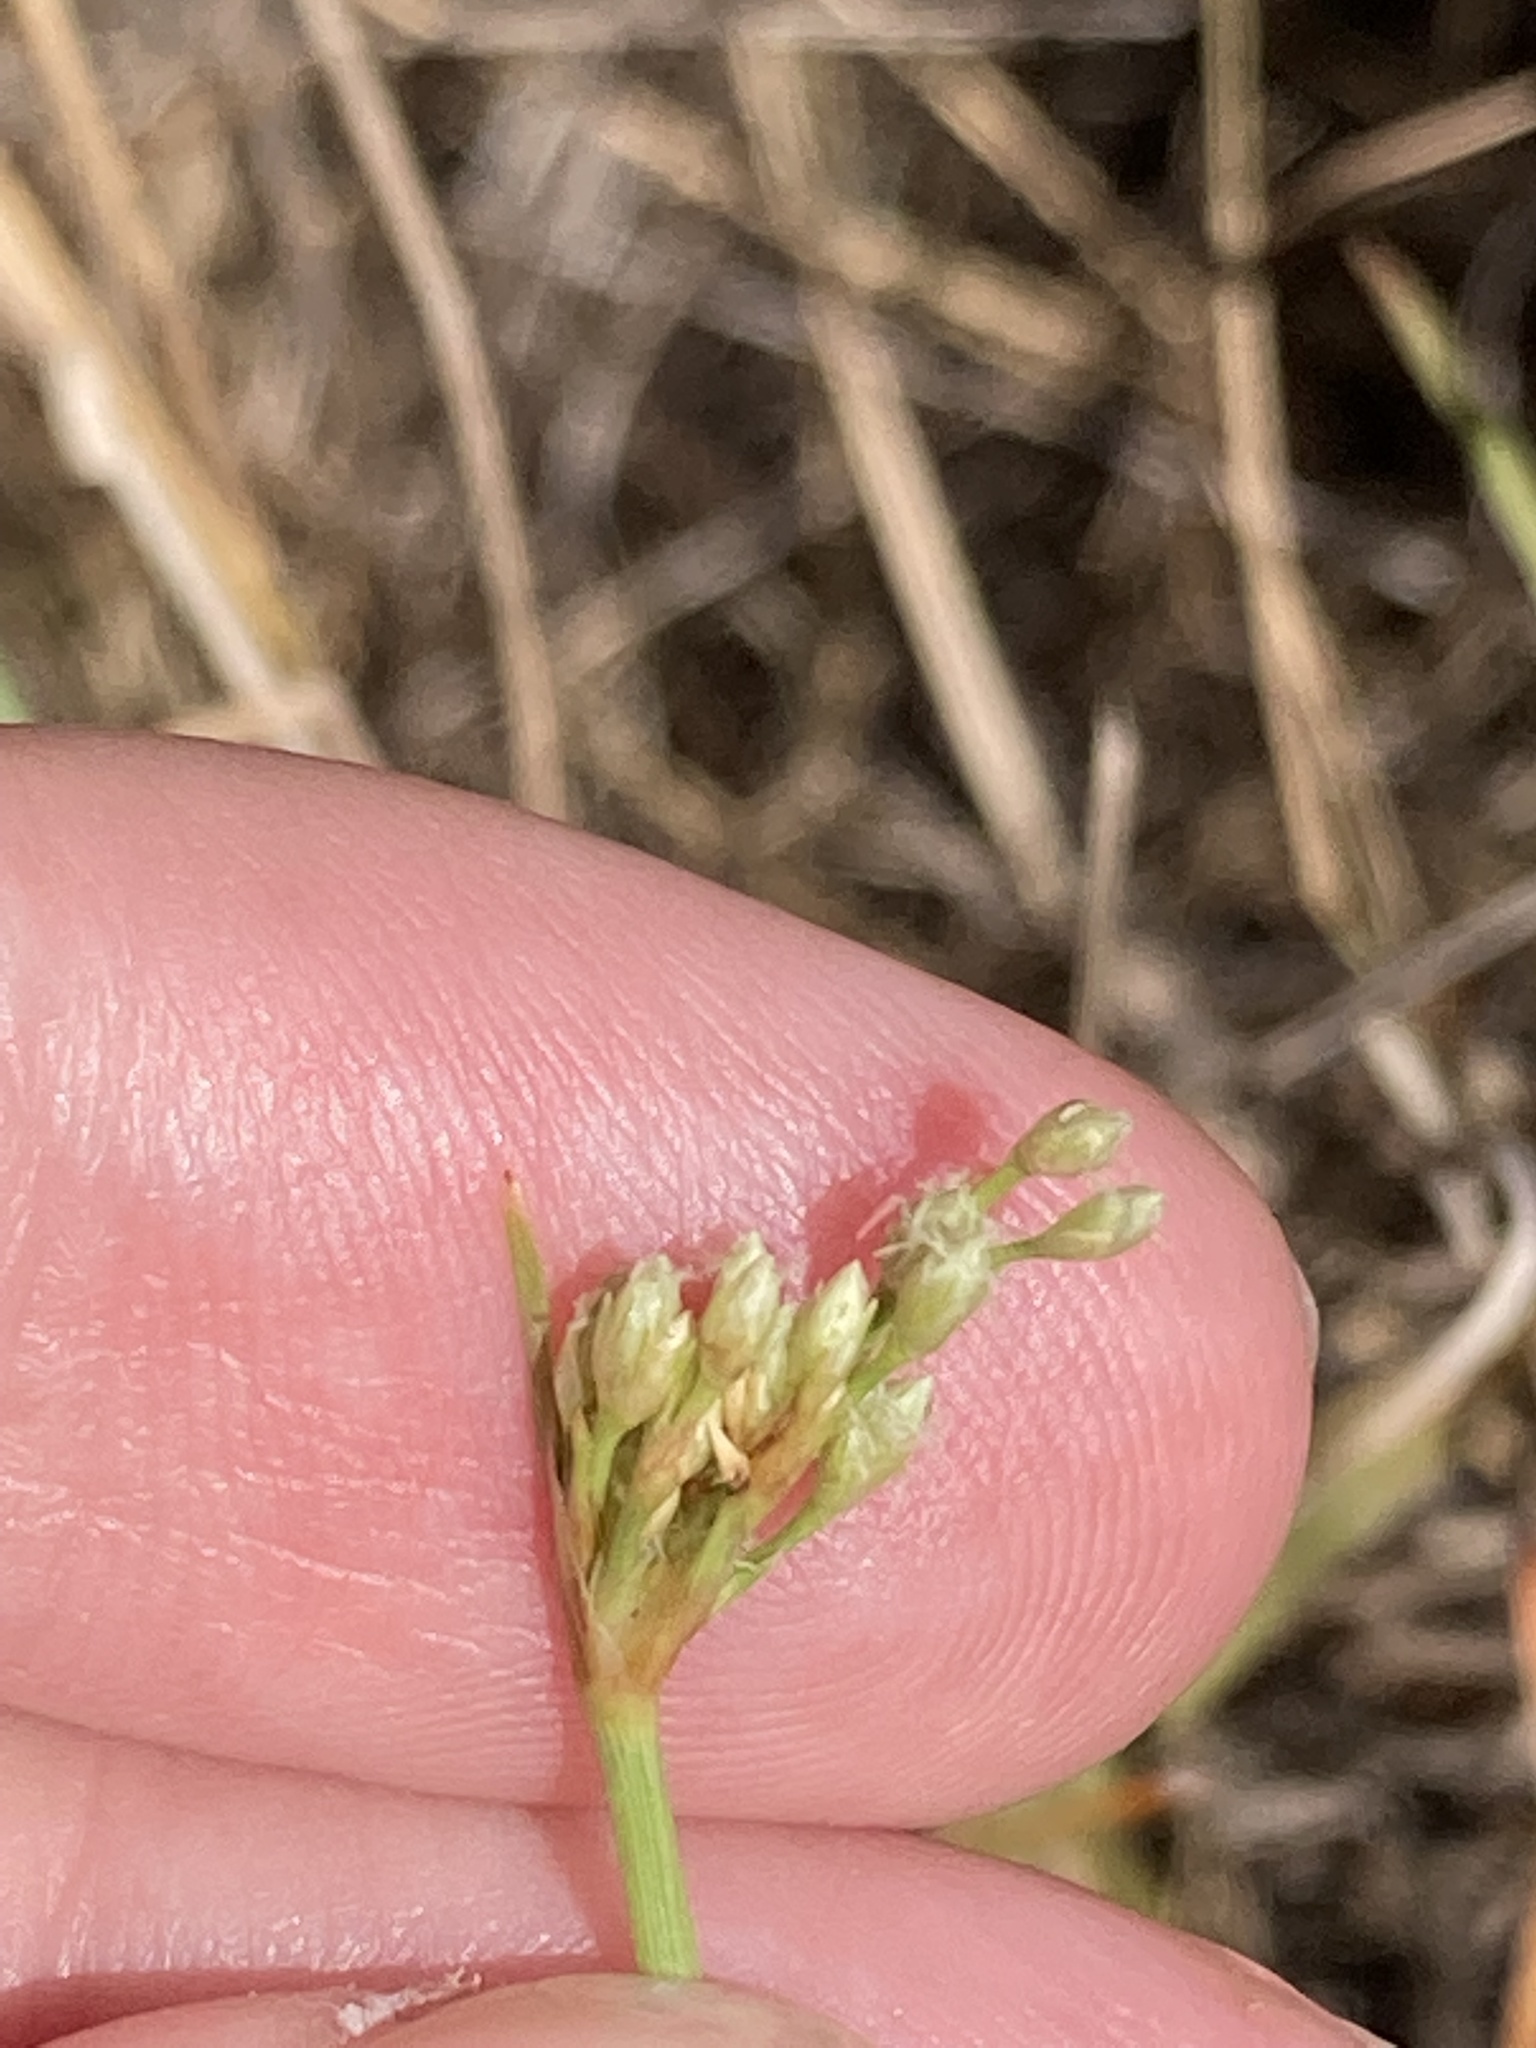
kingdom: Plantae
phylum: Tracheophyta
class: Liliopsida
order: Poales
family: Cyperaceae
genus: Fimbristylis
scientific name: Fimbristylis cymosa
